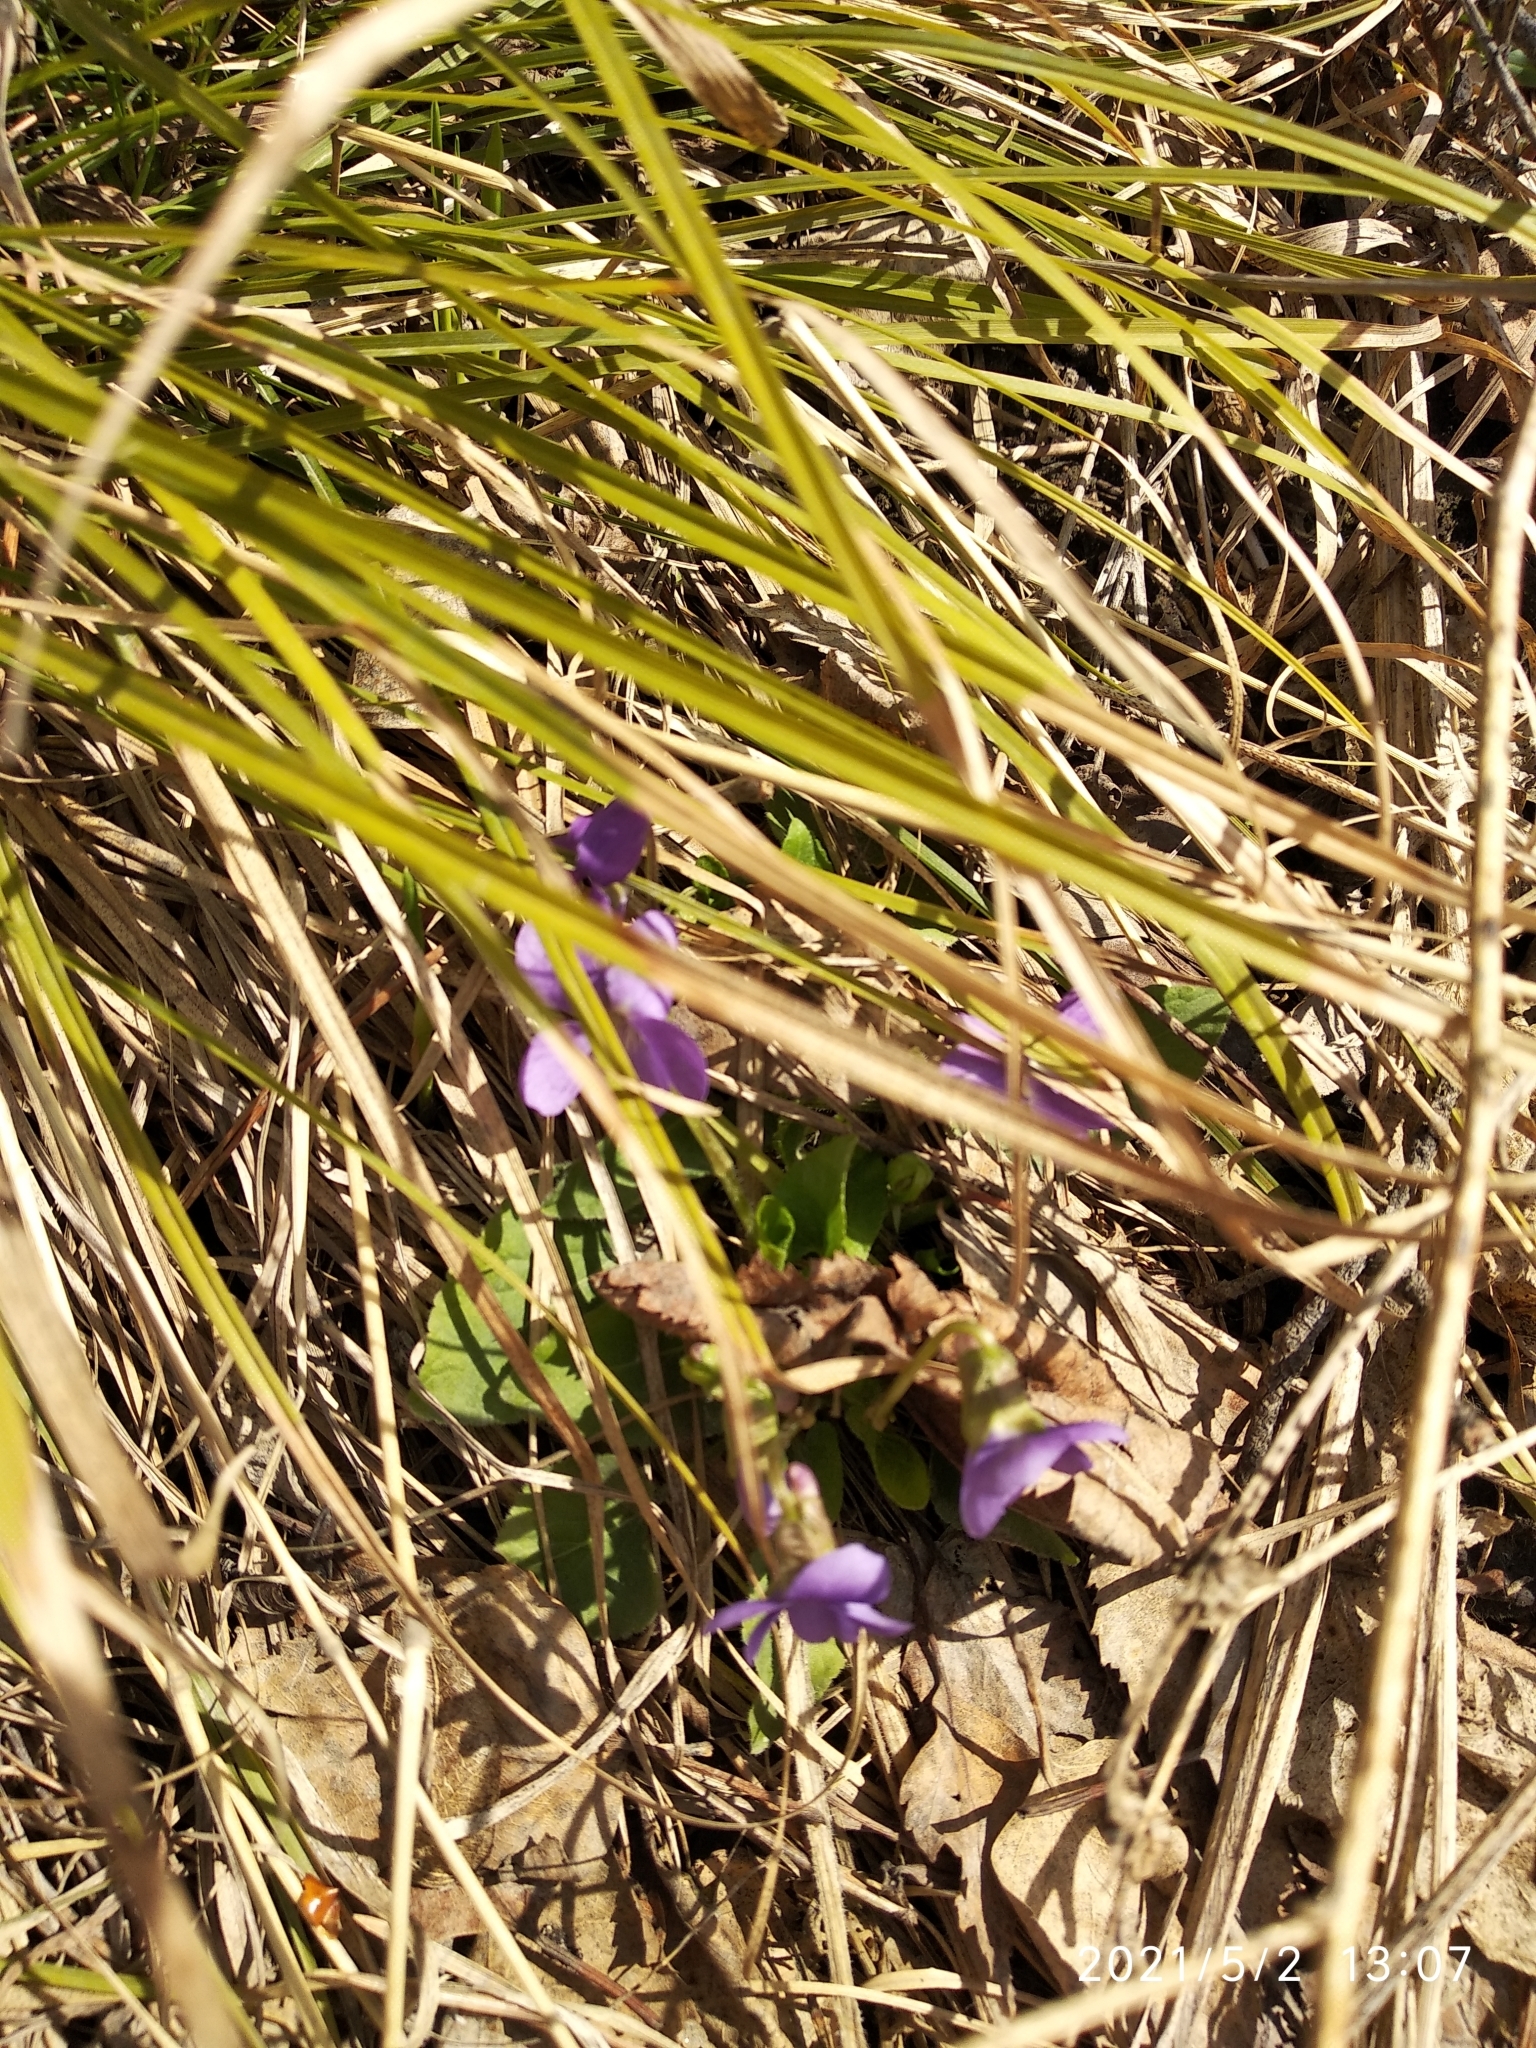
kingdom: Plantae
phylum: Tracheophyta
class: Magnoliopsida
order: Malpighiales
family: Violaceae
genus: Viola
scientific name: Viola hirta
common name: Hairy violet
